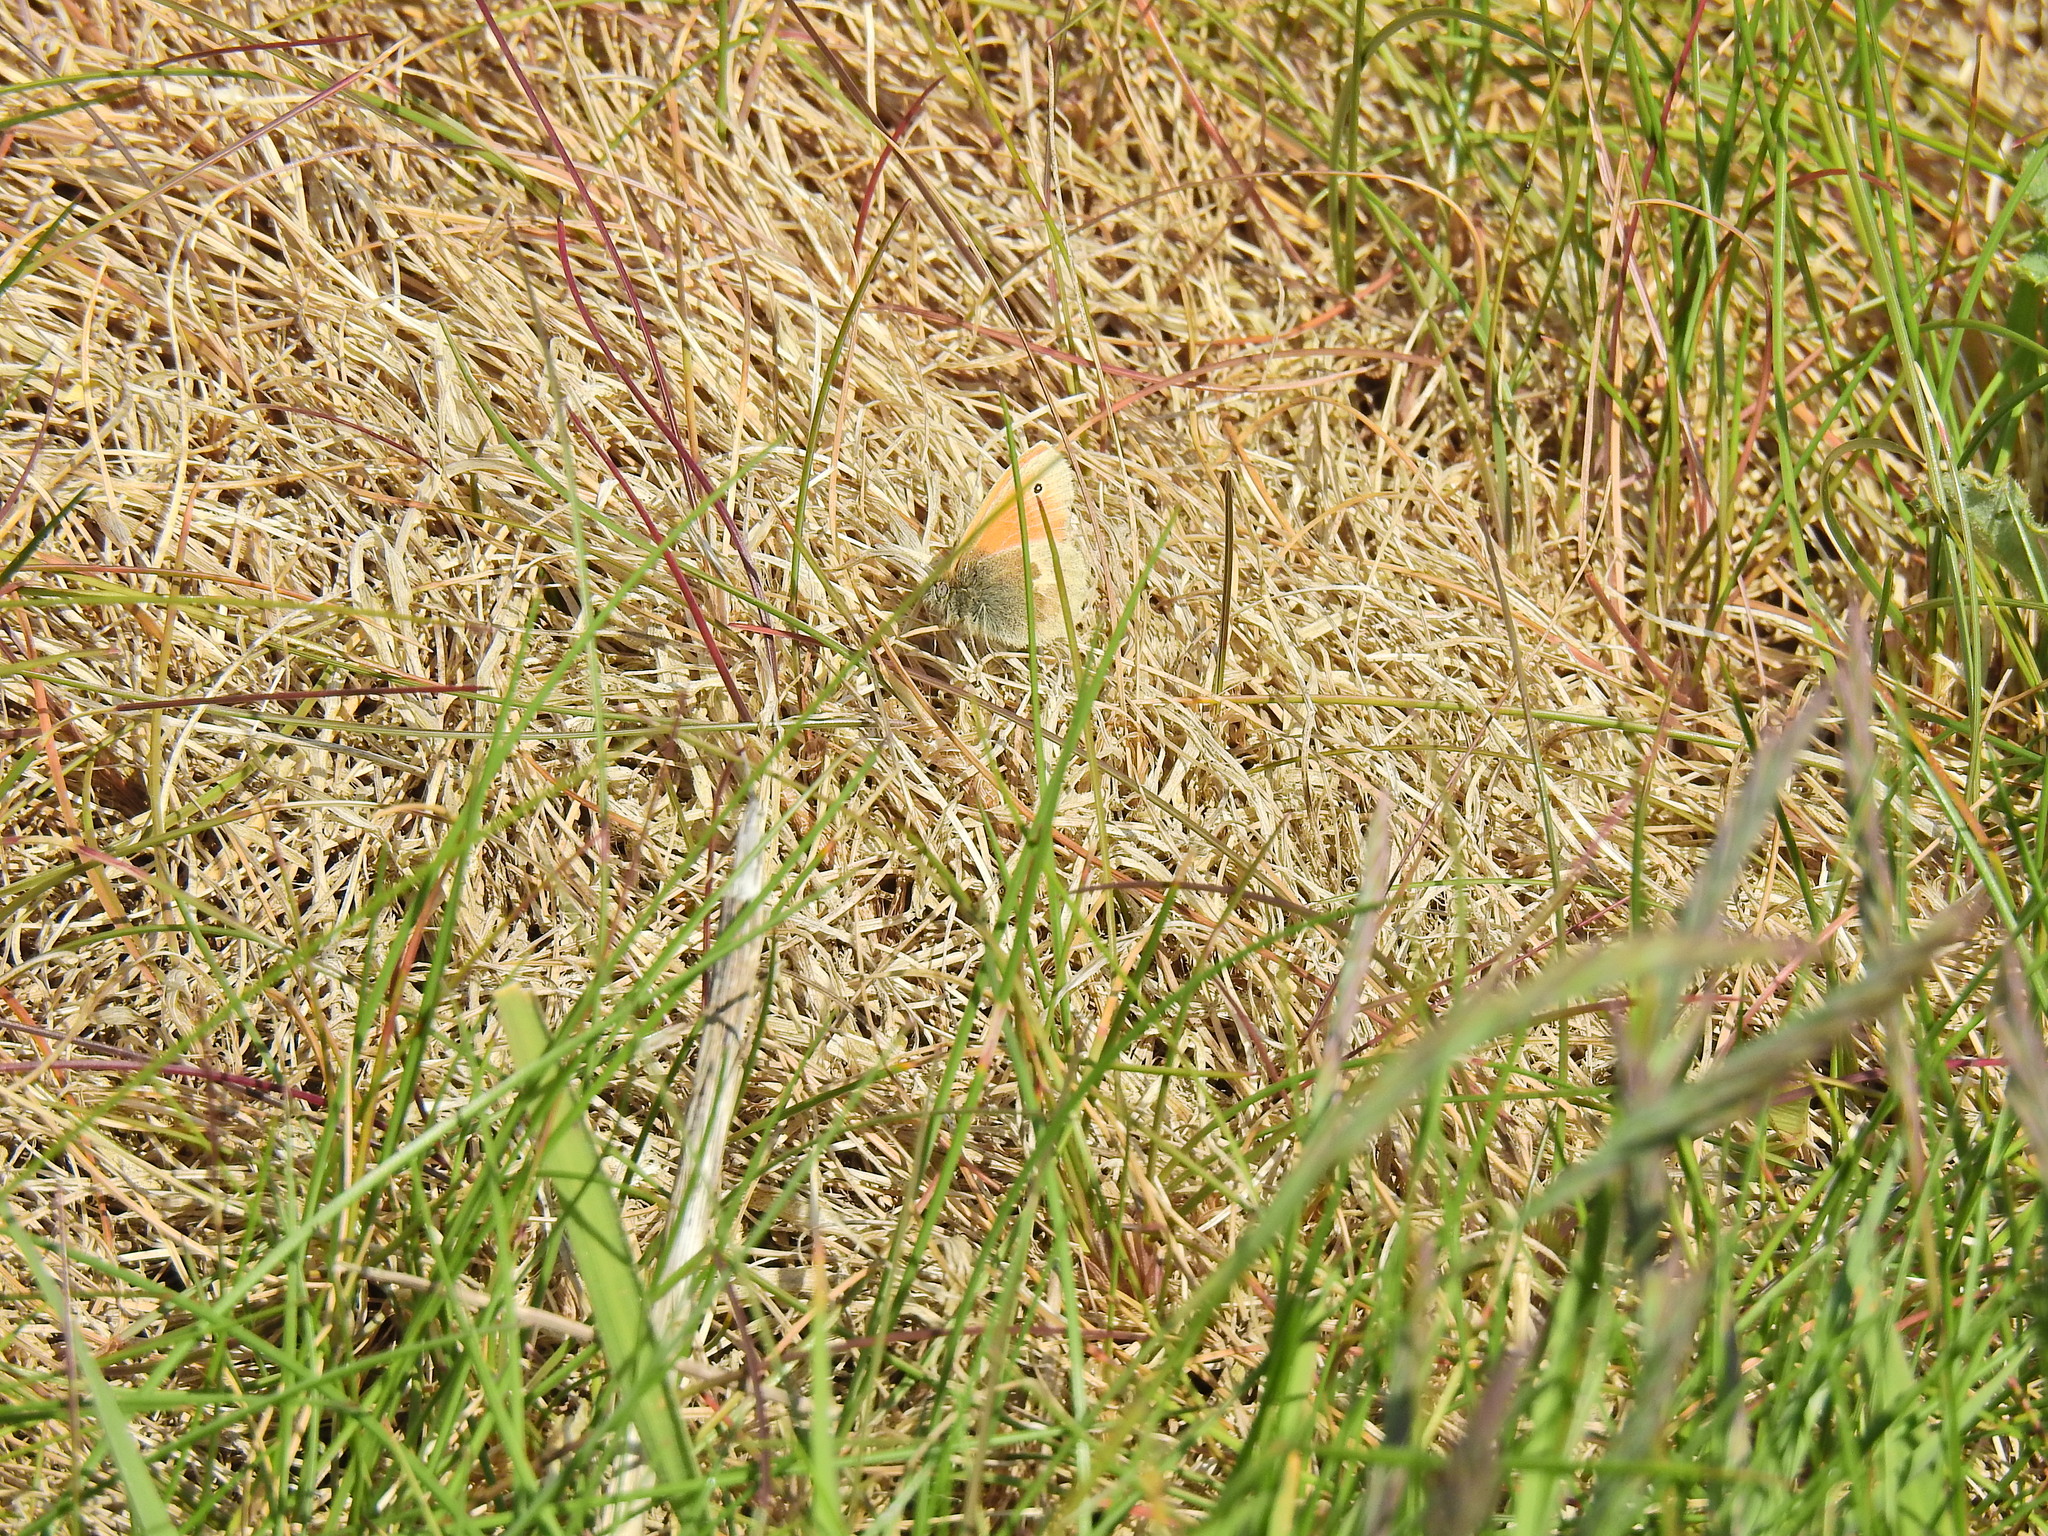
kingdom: Animalia
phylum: Arthropoda
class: Insecta
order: Lepidoptera
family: Nymphalidae
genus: Coenonympha
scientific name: Coenonympha pamphilus
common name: Small heath
